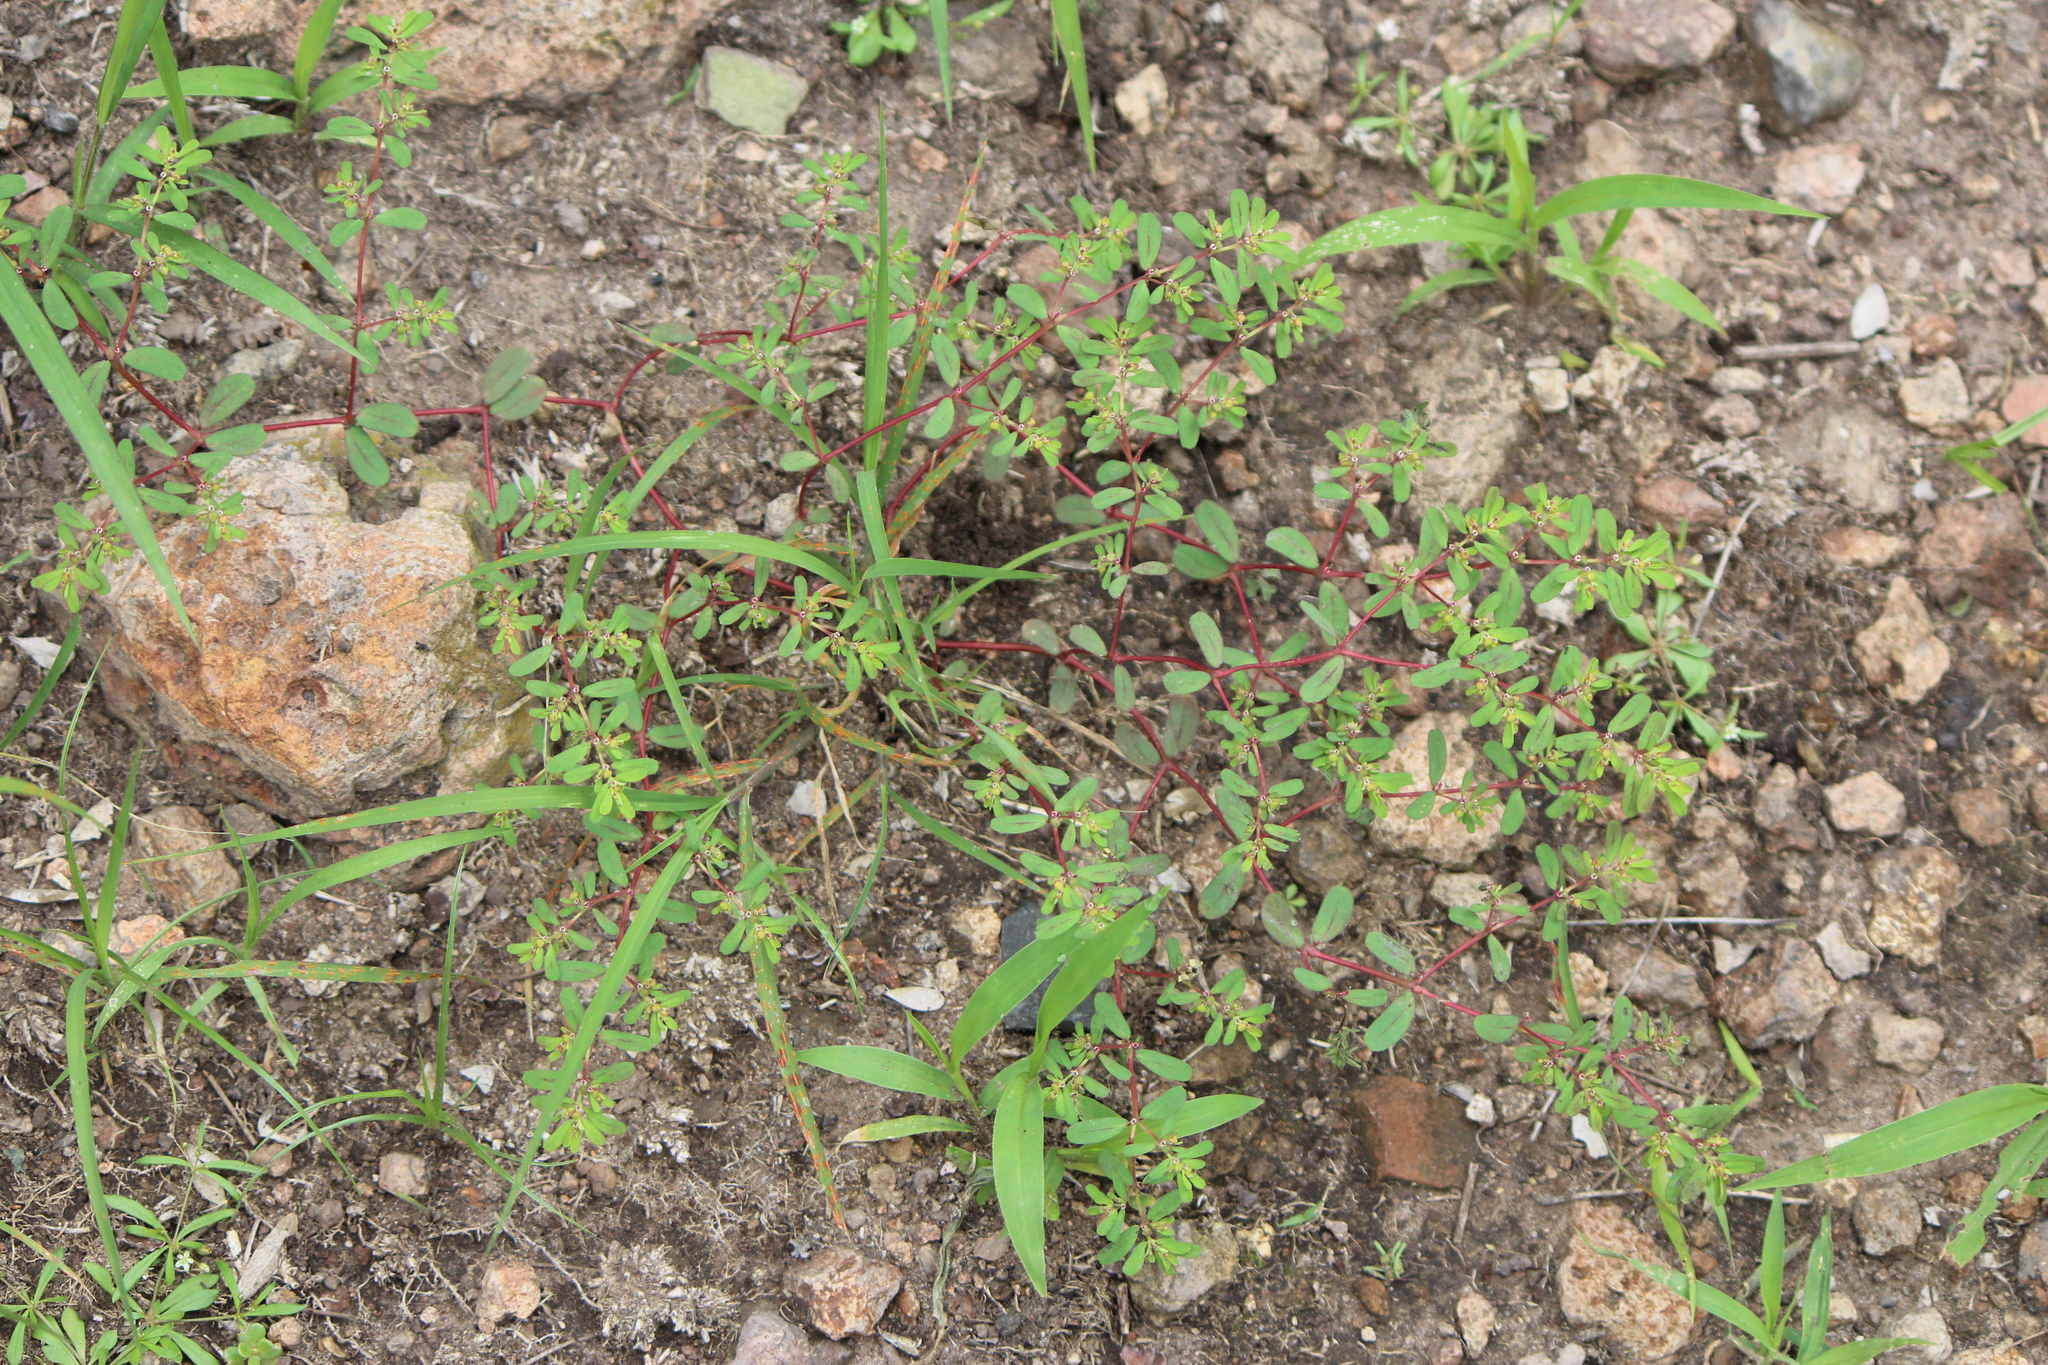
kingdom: Plantae
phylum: Tracheophyta
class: Magnoliopsida
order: Malpighiales
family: Euphorbiaceae
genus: Euphorbia
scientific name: Euphorbia serpillifolia
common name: Thyme-leaf spurge
